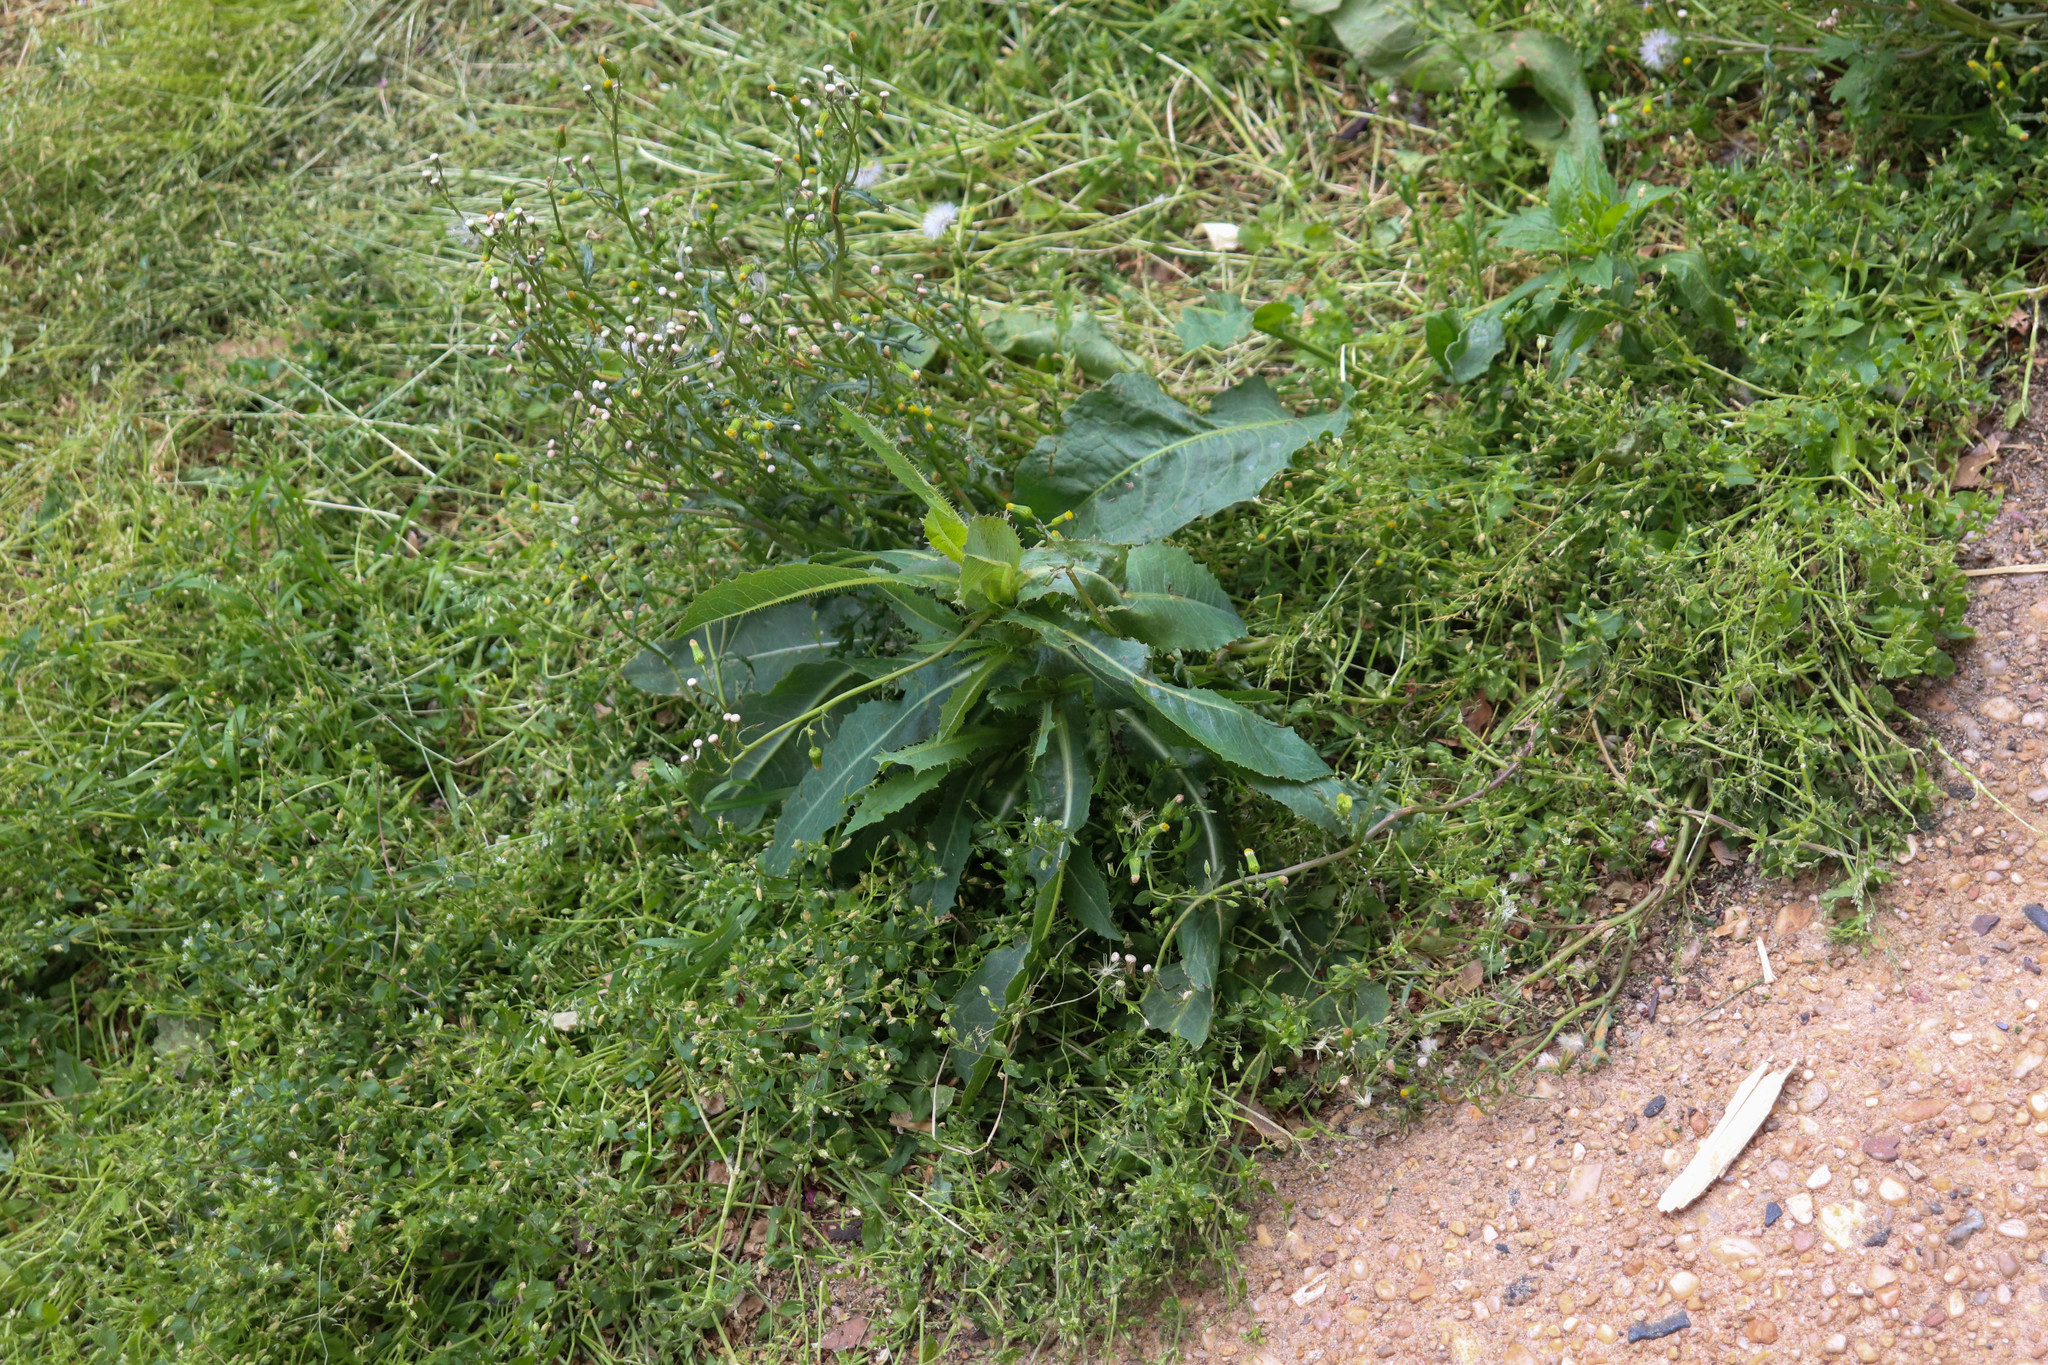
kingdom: Plantae
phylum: Tracheophyta
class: Magnoliopsida
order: Asterales
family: Asteraceae
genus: Lactuca
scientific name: Lactuca serriola
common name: Prickly lettuce
